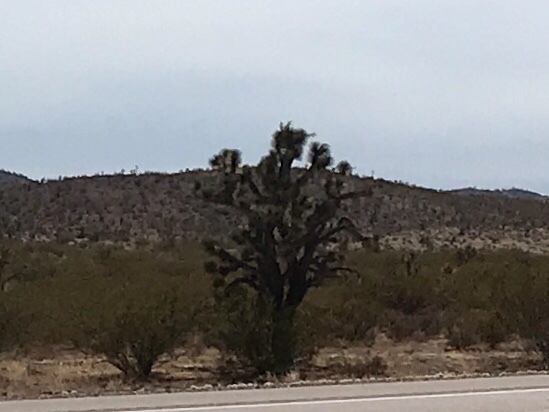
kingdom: Plantae
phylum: Tracheophyta
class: Liliopsida
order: Asparagales
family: Asparagaceae
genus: Yucca
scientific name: Yucca brevifolia
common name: Joshua tree
